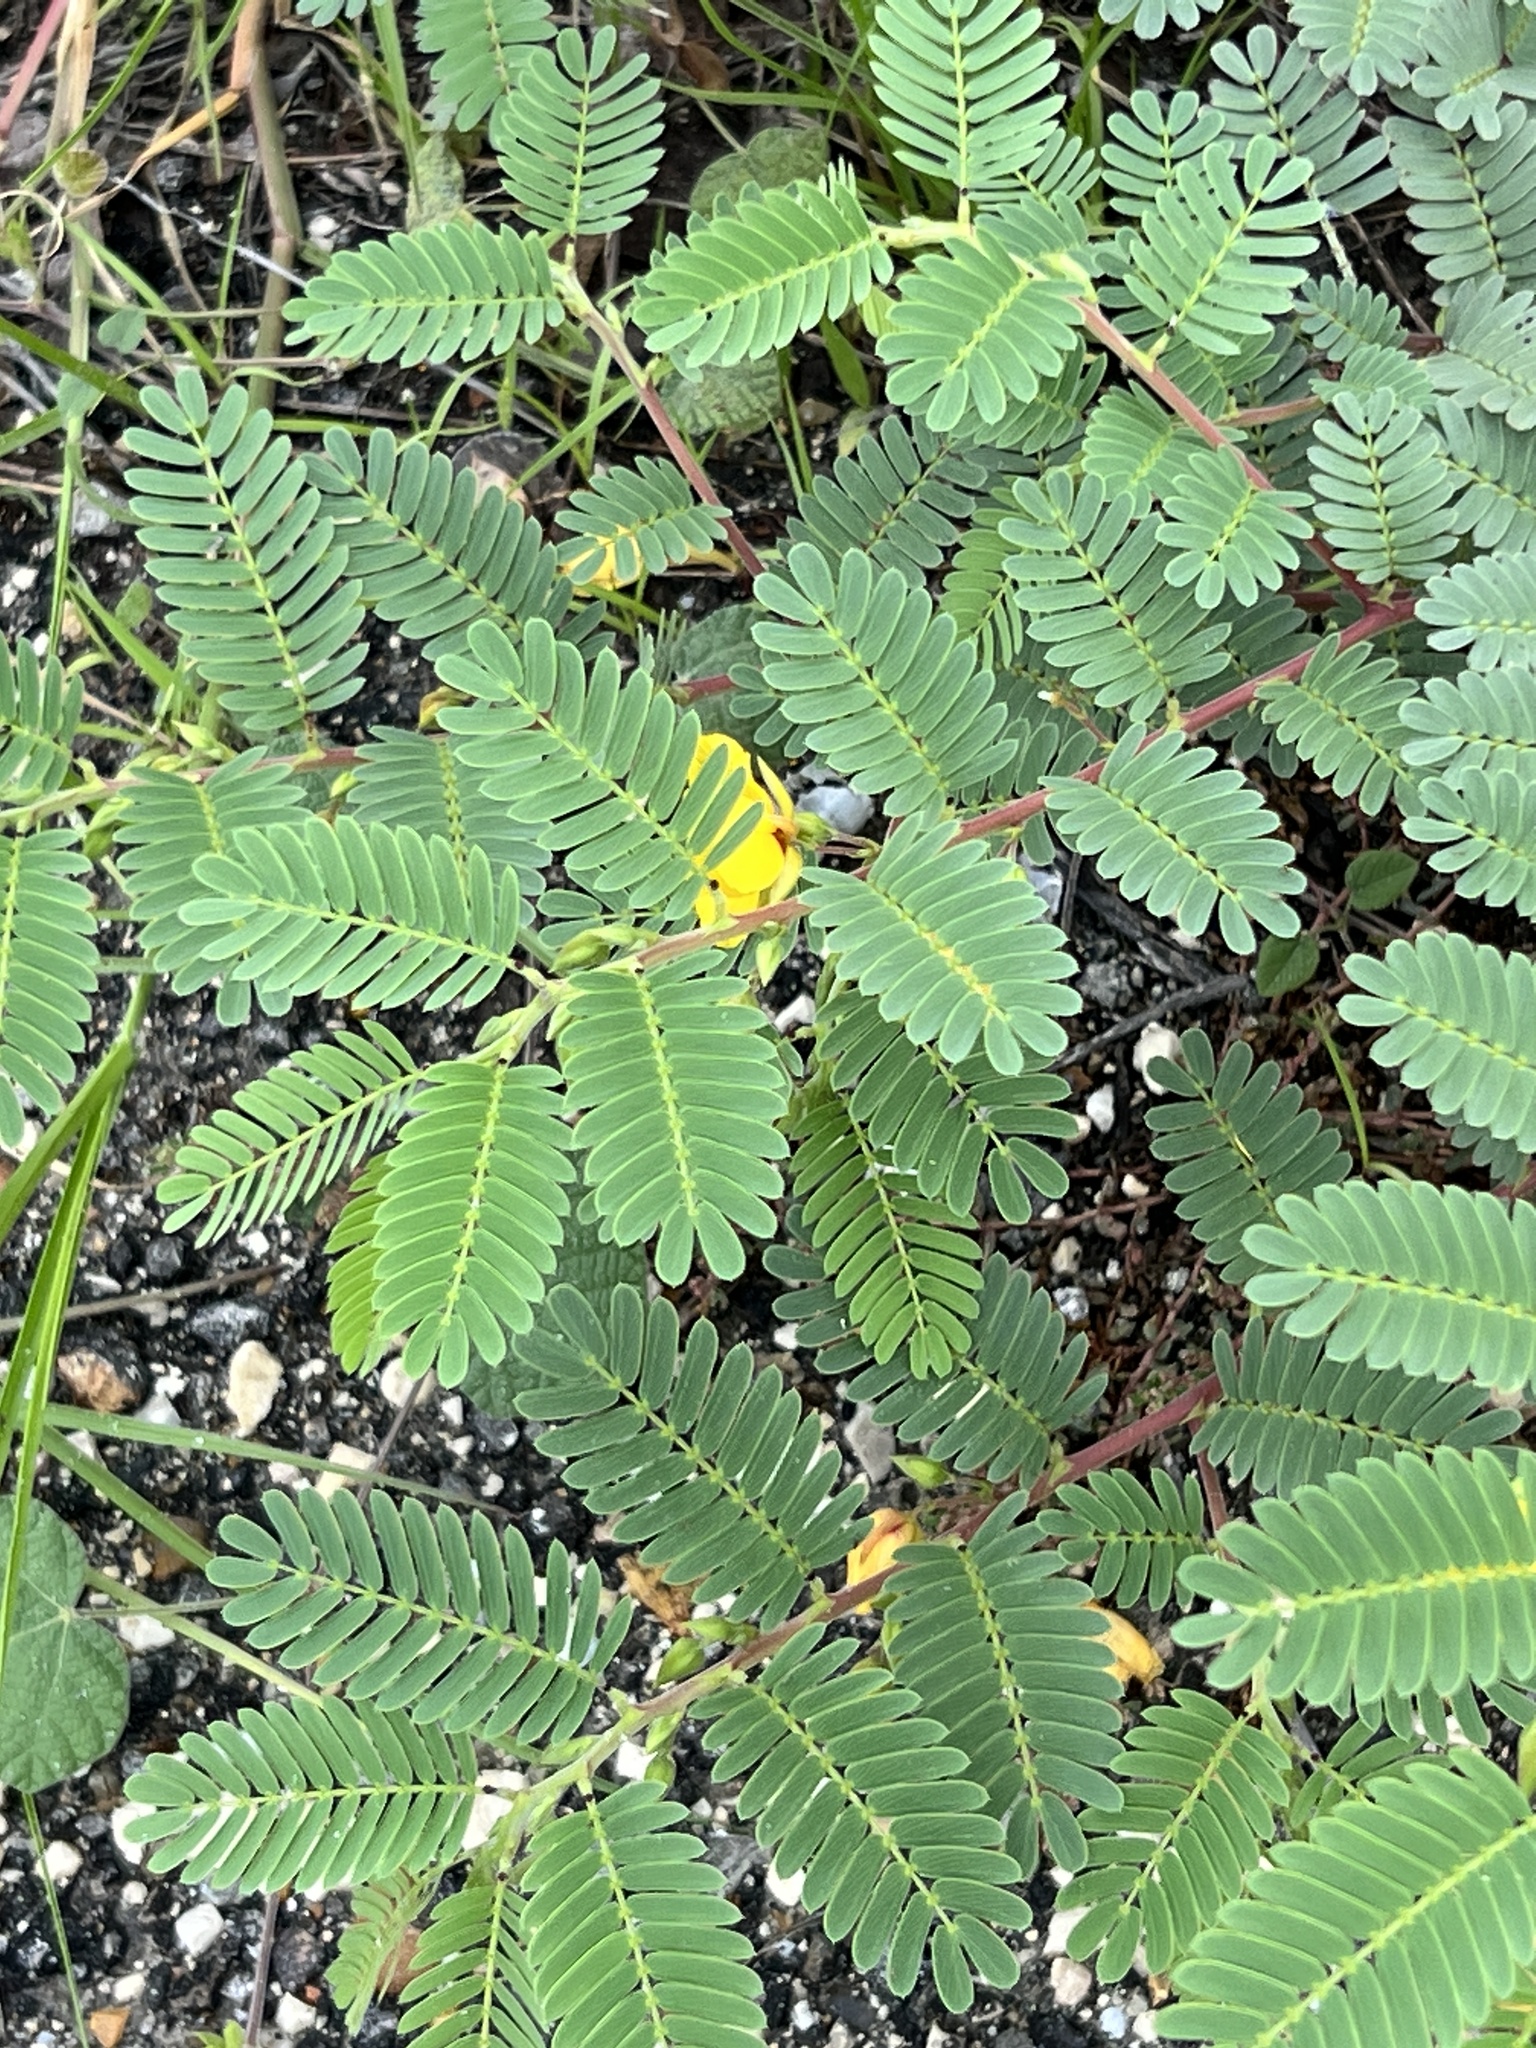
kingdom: Plantae
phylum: Tracheophyta
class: Magnoliopsida
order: Fabales
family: Fabaceae
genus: Chamaecrista
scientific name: Chamaecrista fasciculata
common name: Golden cassia
